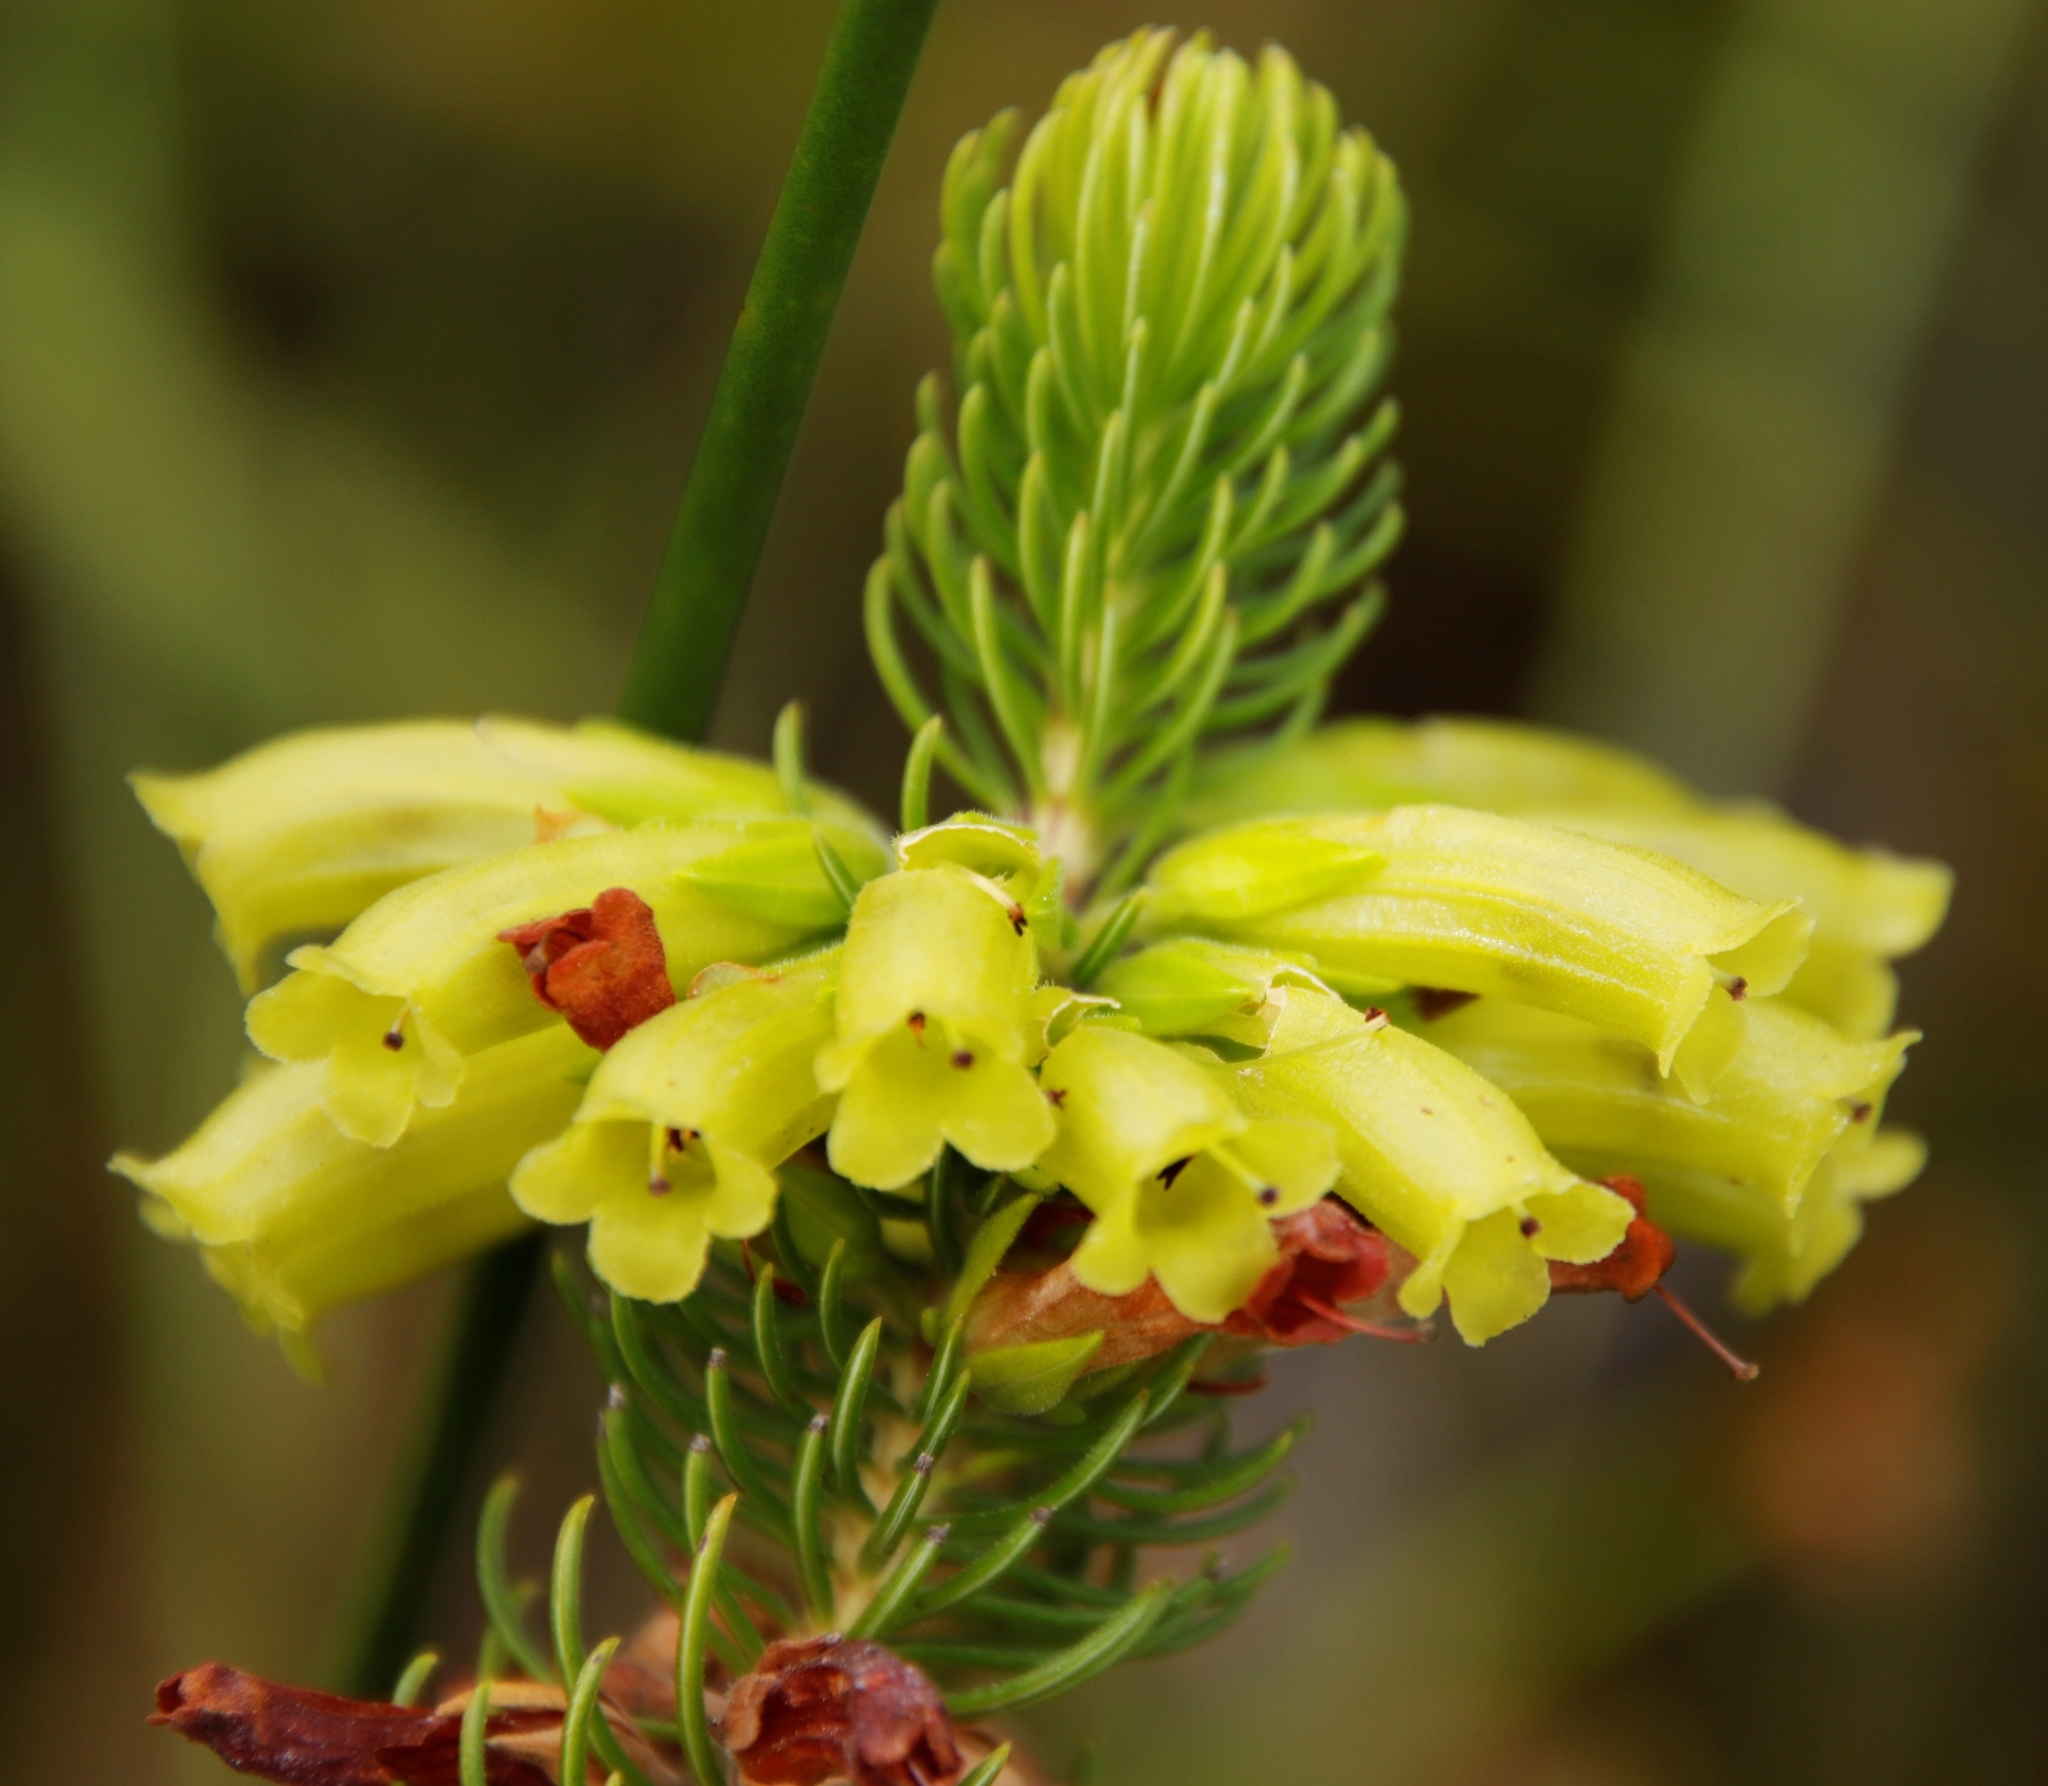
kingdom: Plantae
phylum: Tracheophyta
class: Magnoliopsida
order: Ericales
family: Ericaceae
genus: Erica
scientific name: Erica viscaria
